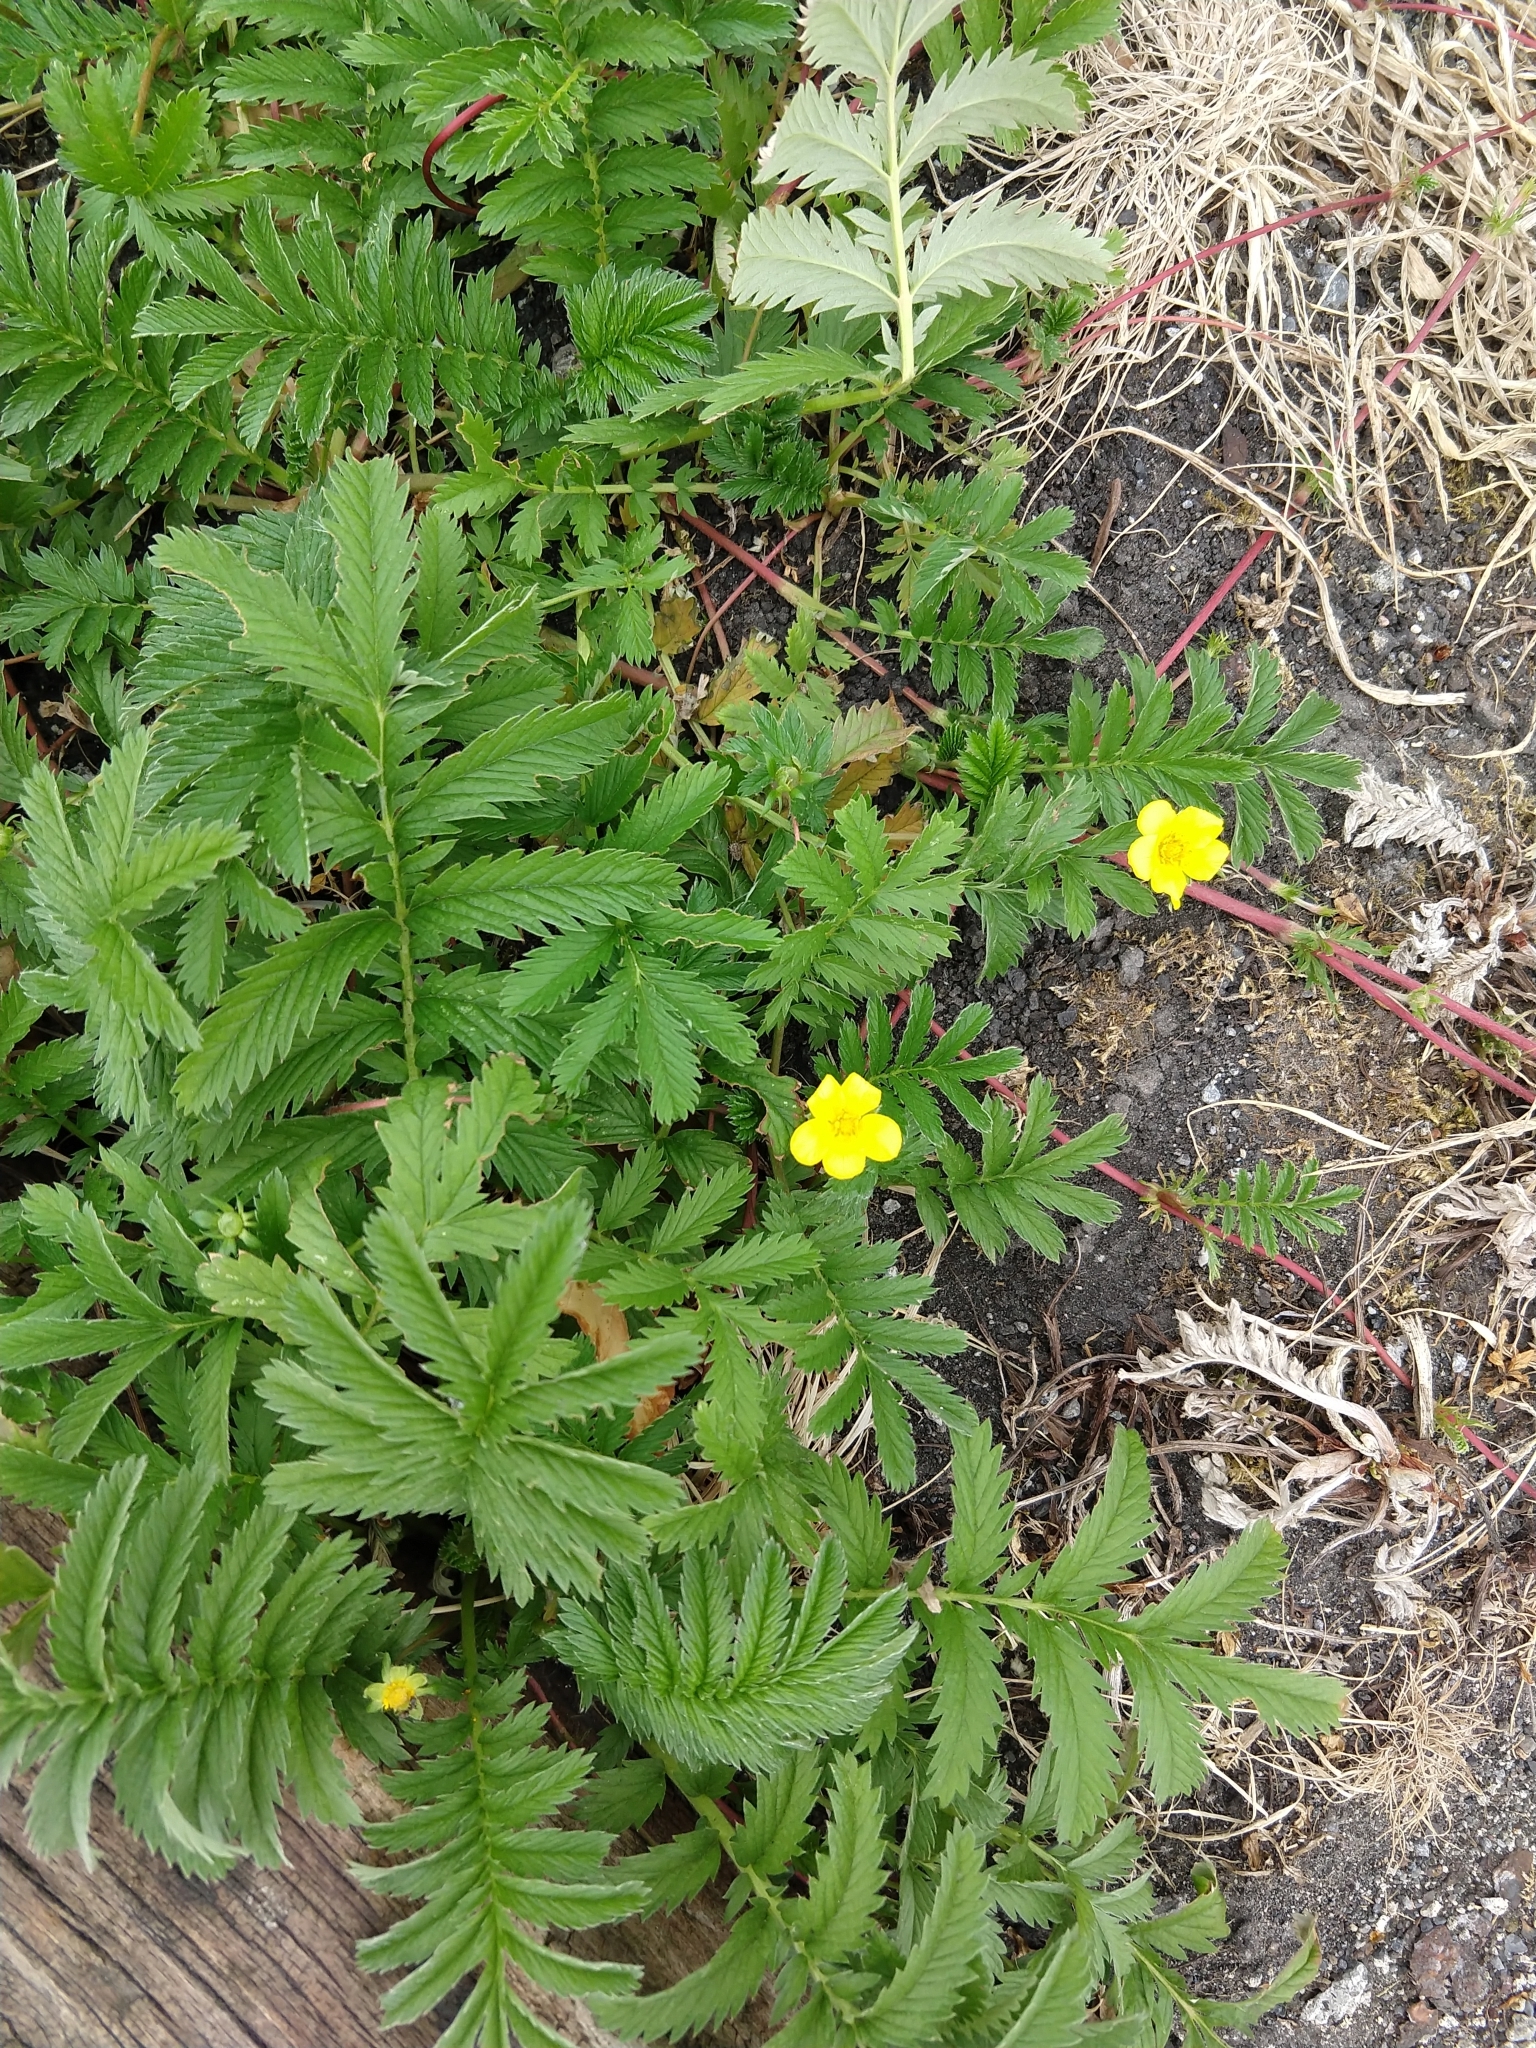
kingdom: Plantae
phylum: Tracheophyta
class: Magnoliopsida
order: Rosales
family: Rosaceae
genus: Argentina
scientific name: Argentina anserina
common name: Common silverweed
